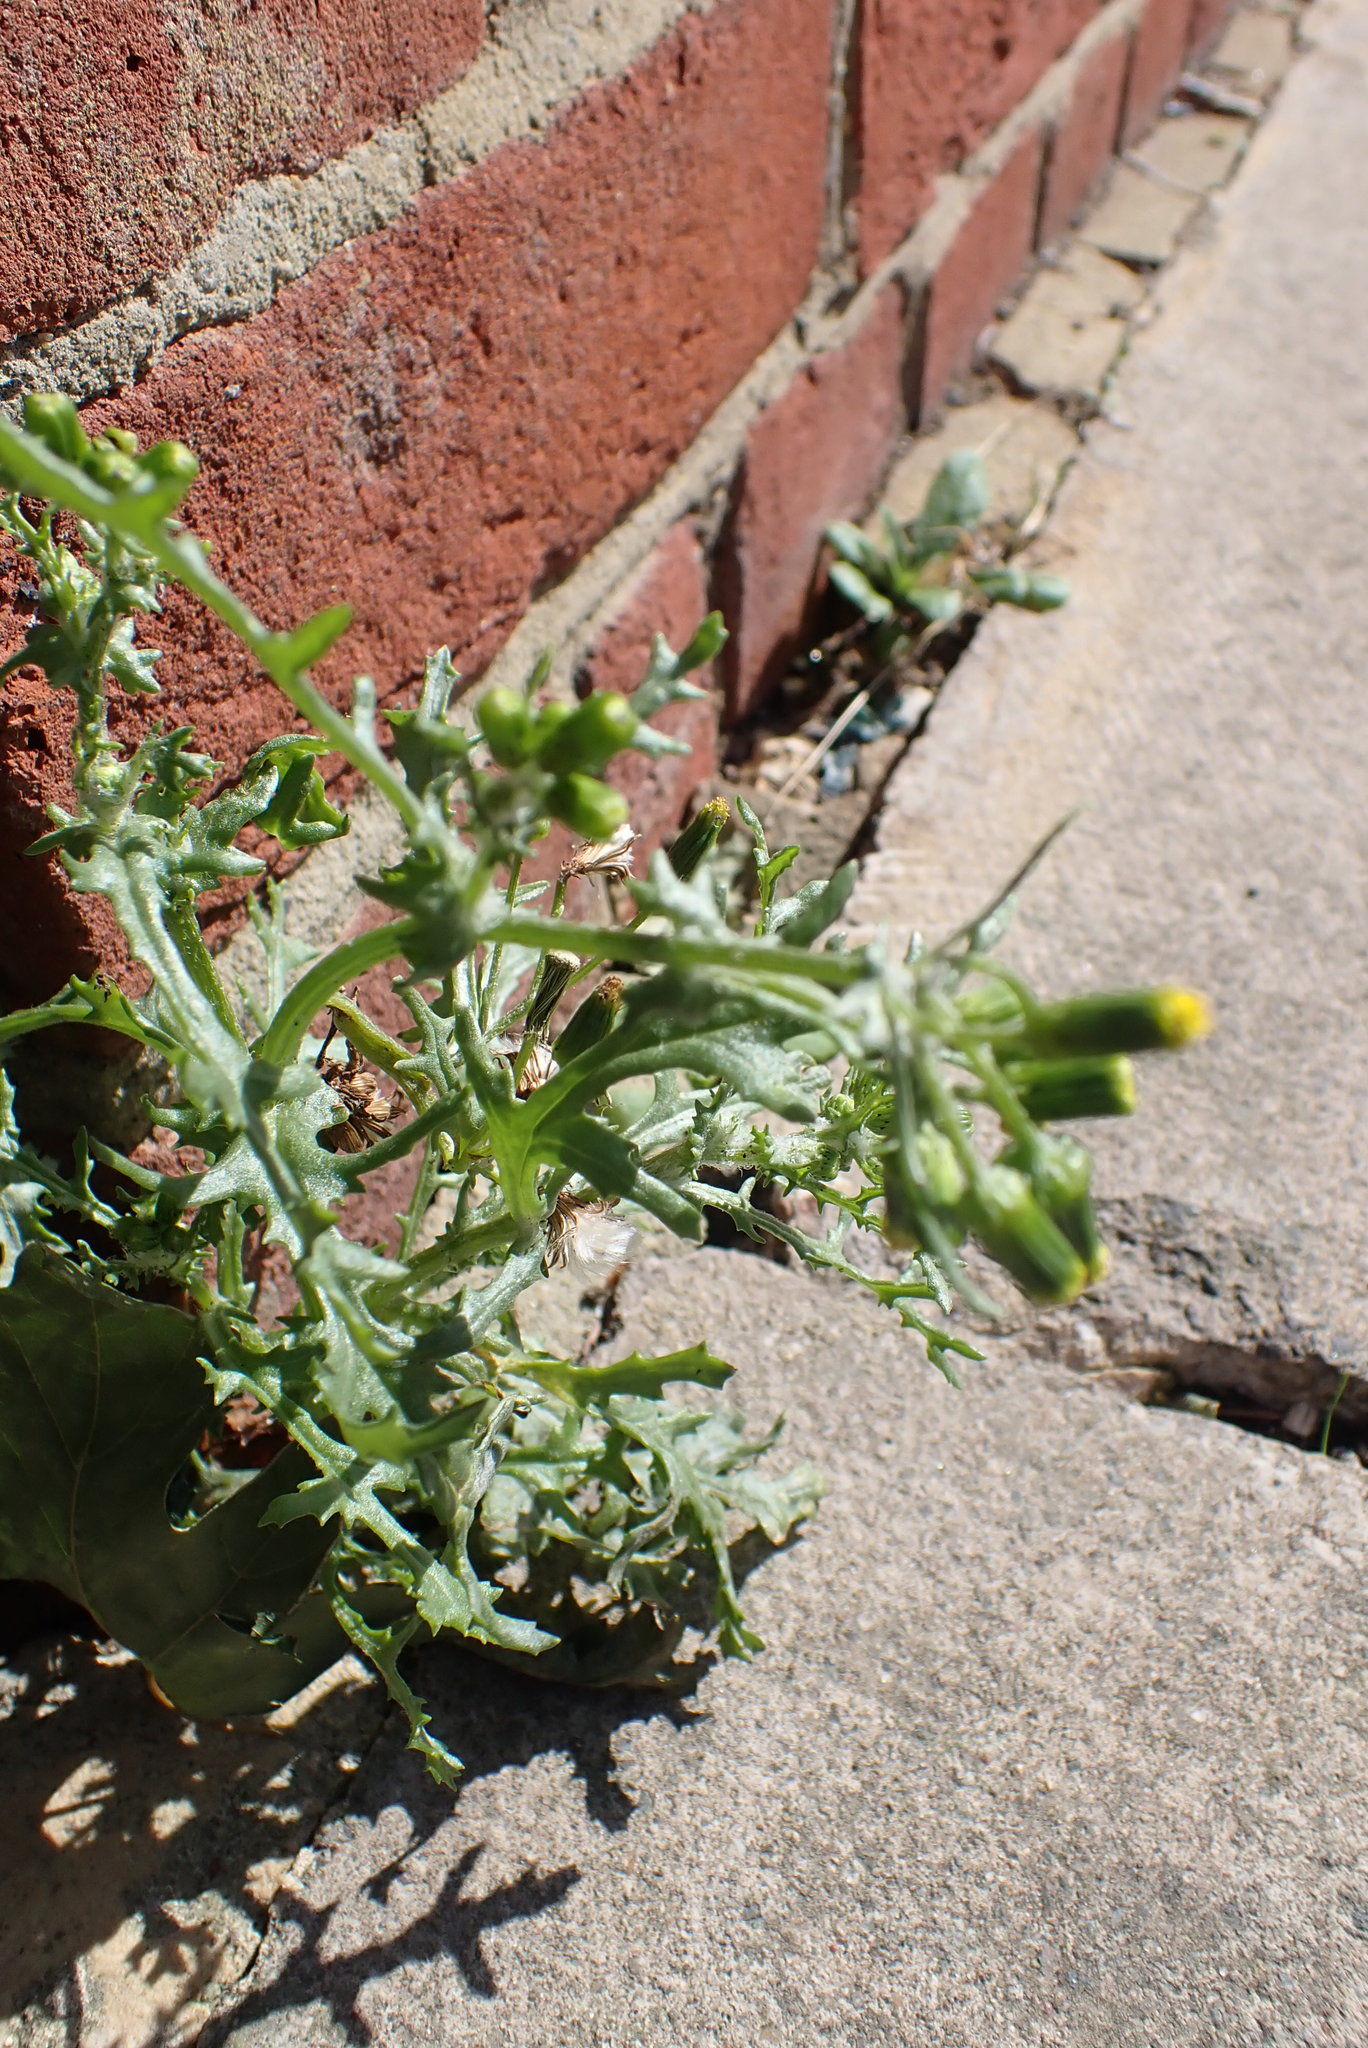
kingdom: Plantae
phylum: Tracheophyta
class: Magnoliopsida
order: Asterales
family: Asteraceae
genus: Senecio
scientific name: Senecio vulgaris
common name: Old-man-in-the-spring
